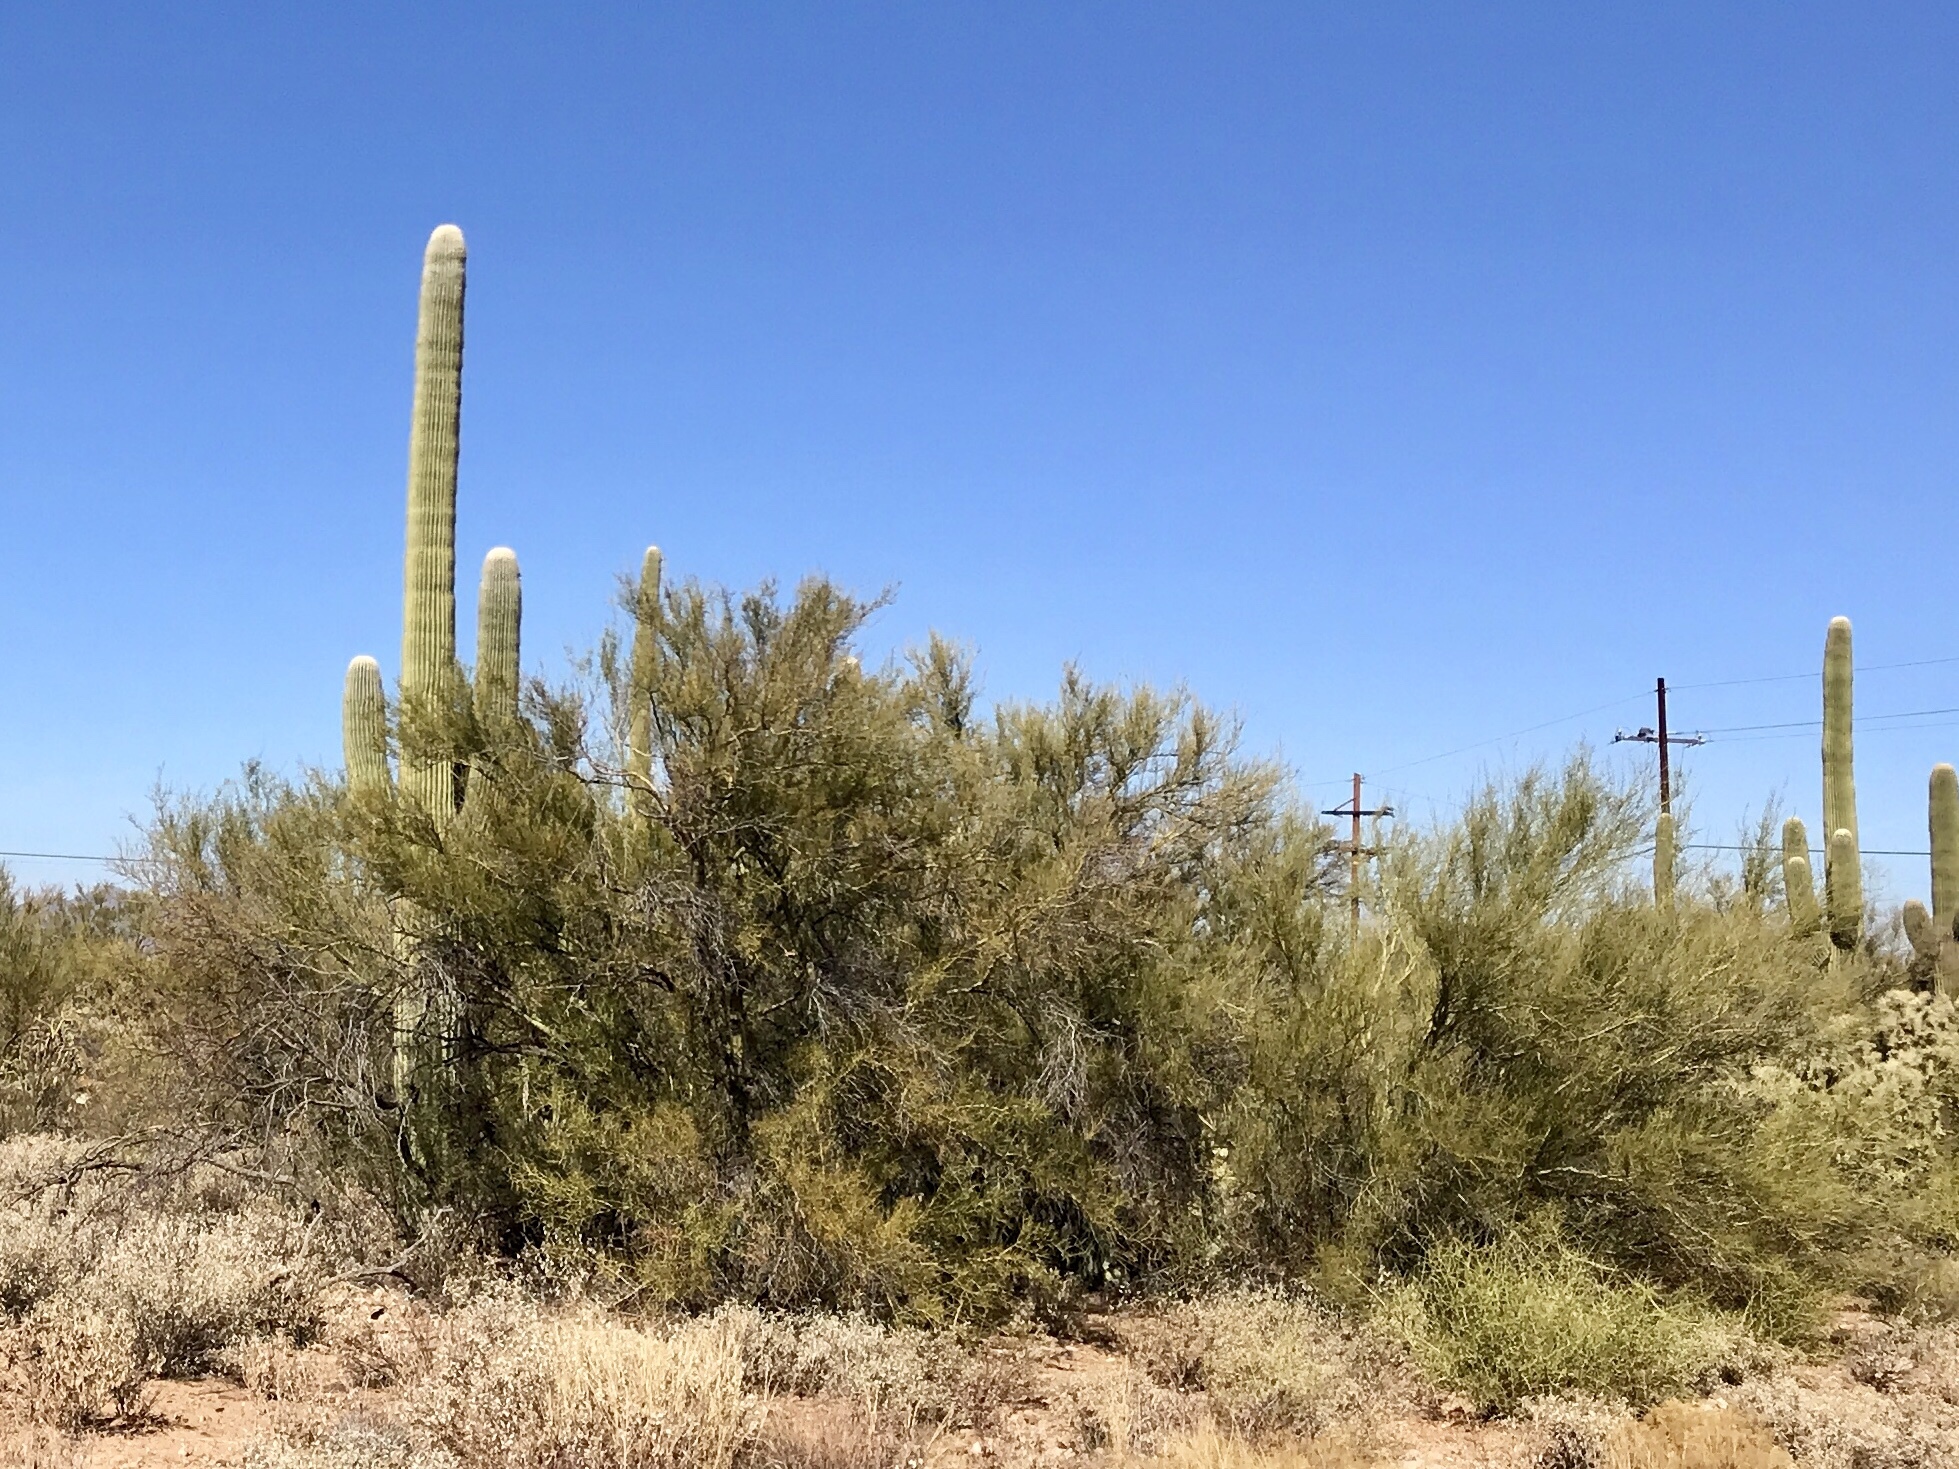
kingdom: Plantae
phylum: Tracheophyta
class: Magnoliopsida
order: Fabales
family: Fabaceae
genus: Parkinsonia
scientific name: Parkinsonia microphylla
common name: Yellow paloverde
